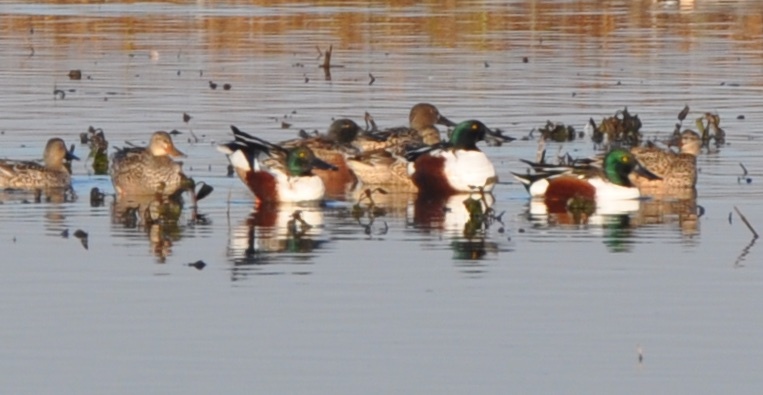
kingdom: Animalia
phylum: Chordata
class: Aves
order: Anseriformes
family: Anatidae
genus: Spatula
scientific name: Spatula clypeata
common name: Northern shoveler
